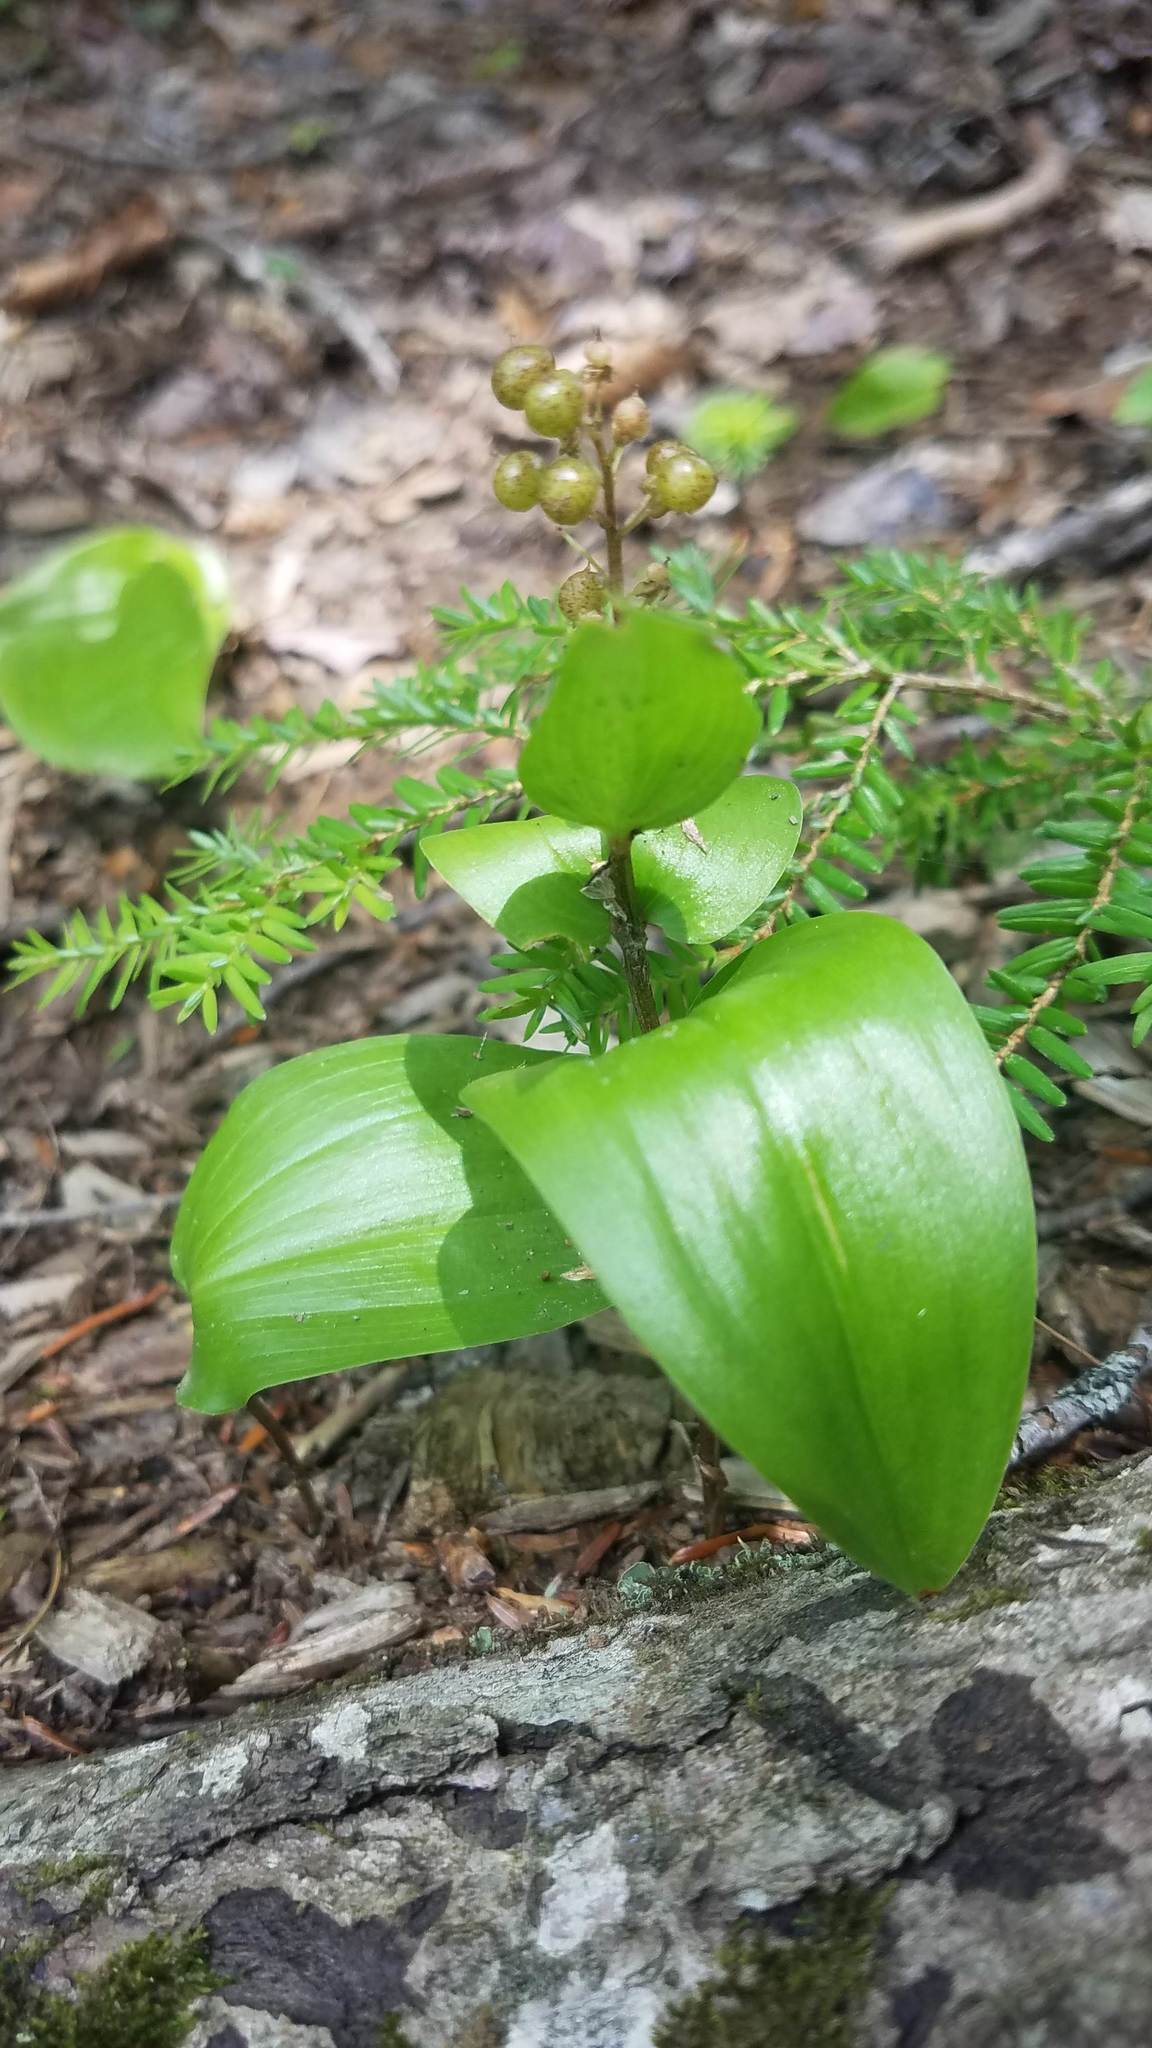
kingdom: Plantae
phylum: Tracheophyta
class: Liliopsida
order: Asparagales
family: Asparagaceae
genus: Maianthemum
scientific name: Maianthemum canadense
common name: False lily-of-the-valley
